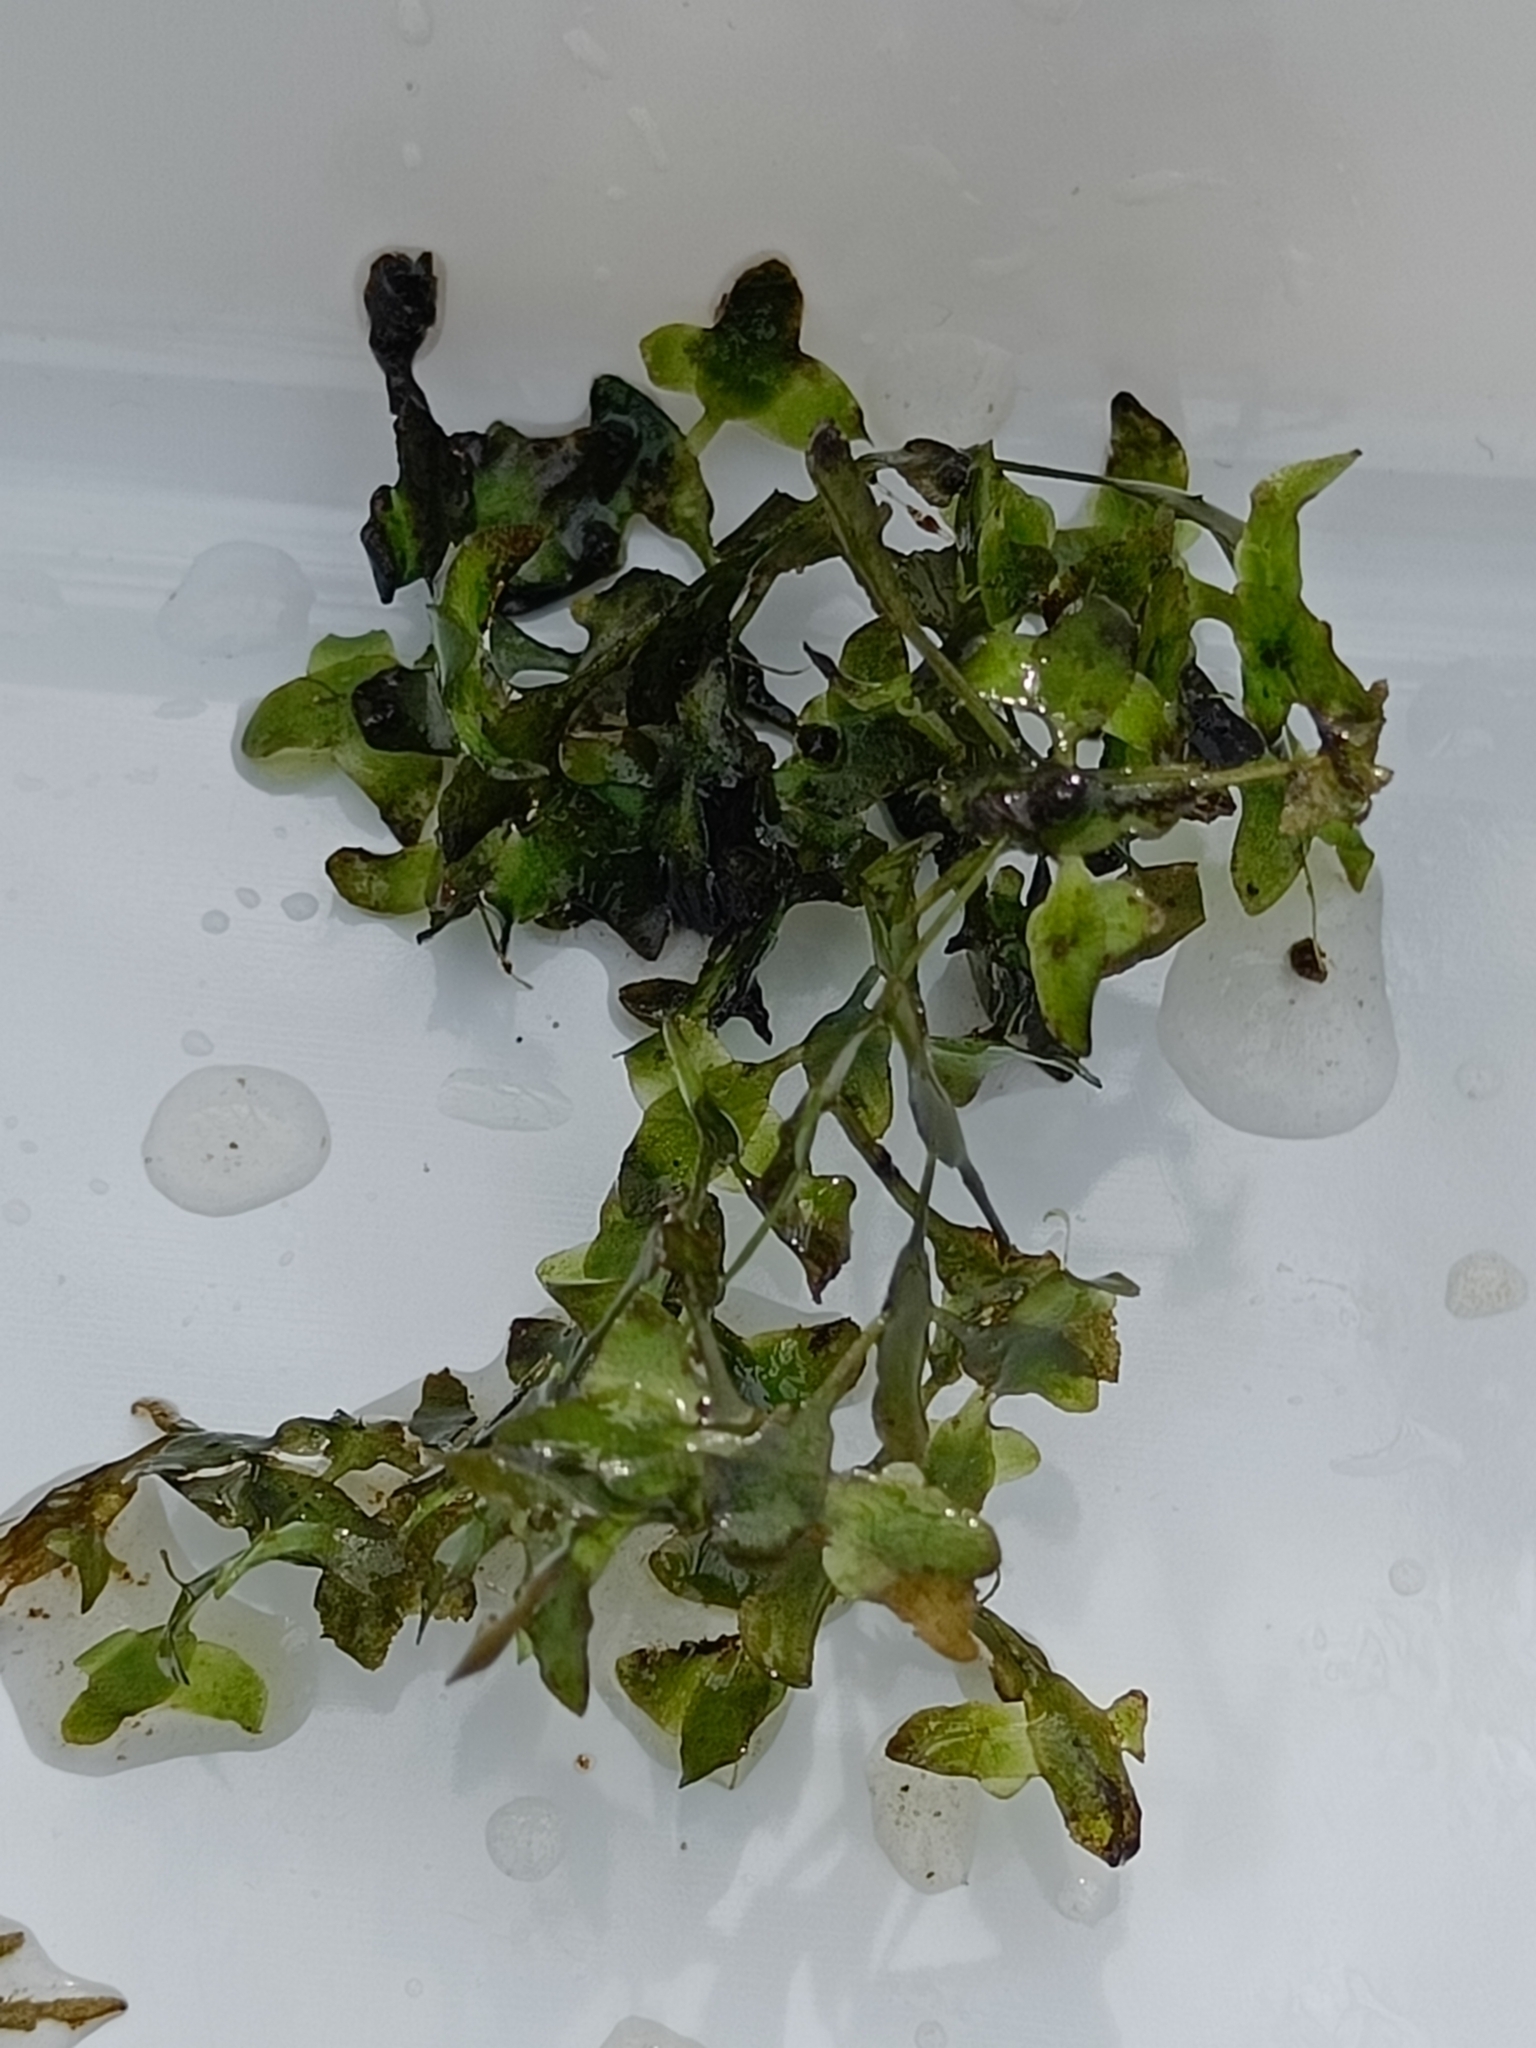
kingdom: Plantae
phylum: Tracheophyta
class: Liliopsida
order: Alismatales
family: Araceae
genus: Lemna
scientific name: Lemna trisulca
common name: Ivy-leaved duckweed
